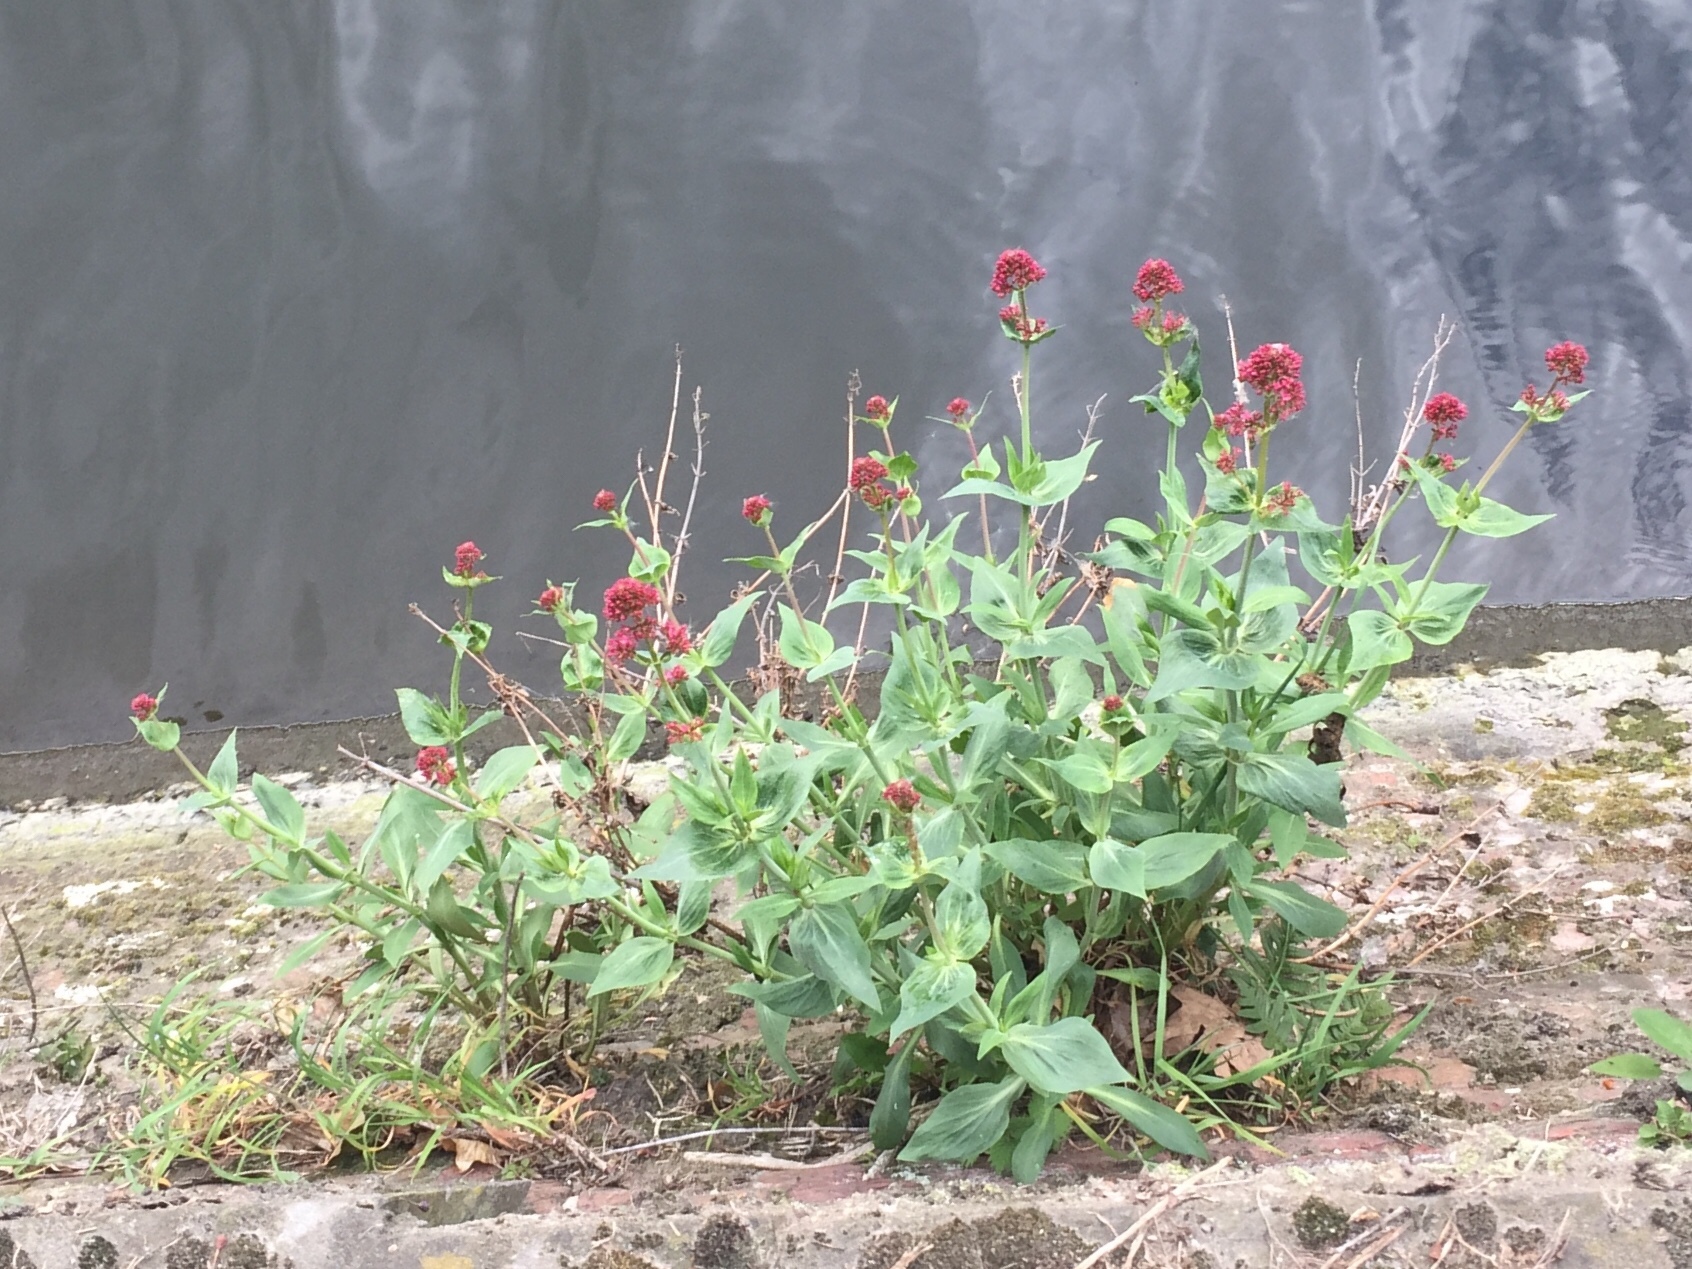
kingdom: Plantae
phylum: Tracheophyta
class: Magnoliopsida
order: Dipsacales
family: Caprifoliaceae
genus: Centranthus
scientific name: Centranthus ruber
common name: Red valerian
